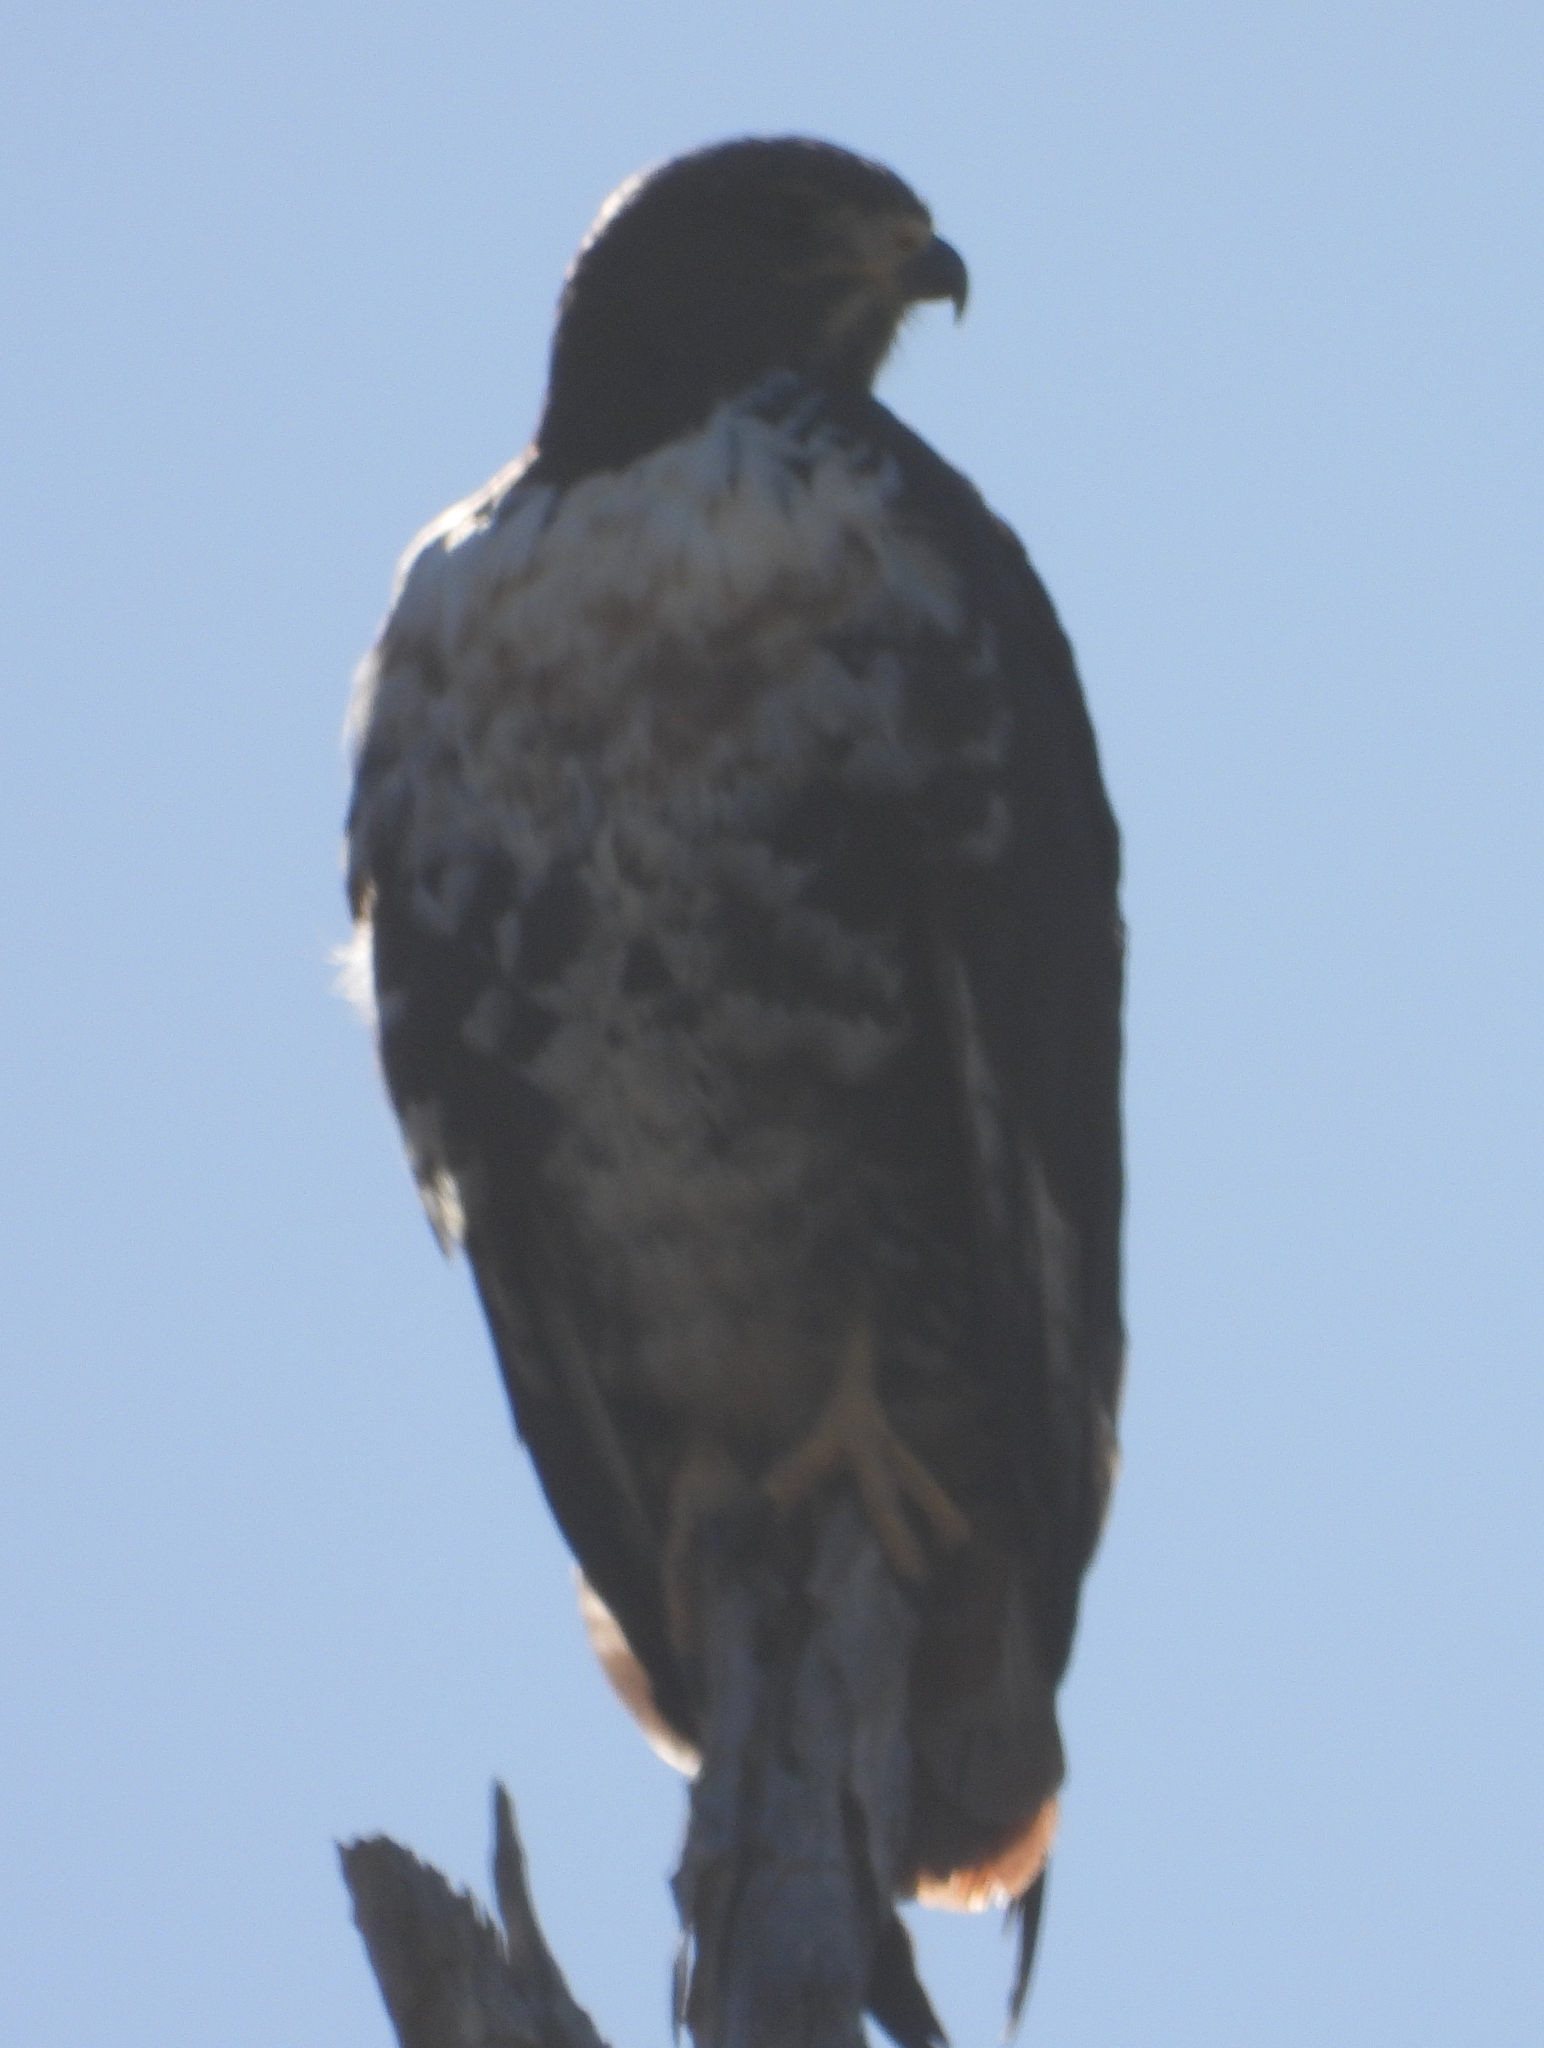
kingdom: Animalia
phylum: Chordata
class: Aves
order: Accipitriformes
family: Accipitridae
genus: Buteo
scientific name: Buteo rufofuscus
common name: Jackal buzzard
